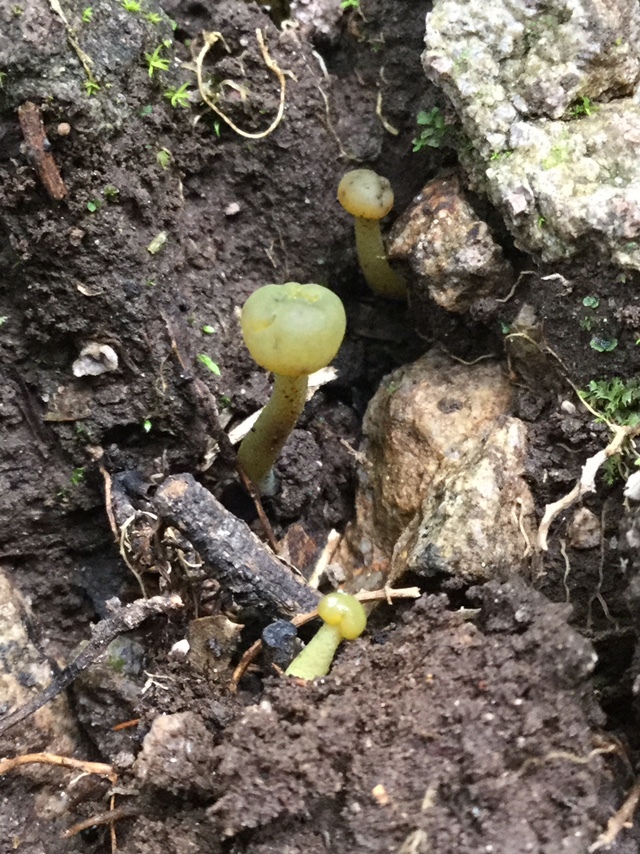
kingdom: Fungi
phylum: Ascomycota
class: Leotiomycetes
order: Leotiales
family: Leotiaceae
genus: Leotia
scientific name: Leotia lubrica
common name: Jellybaby
